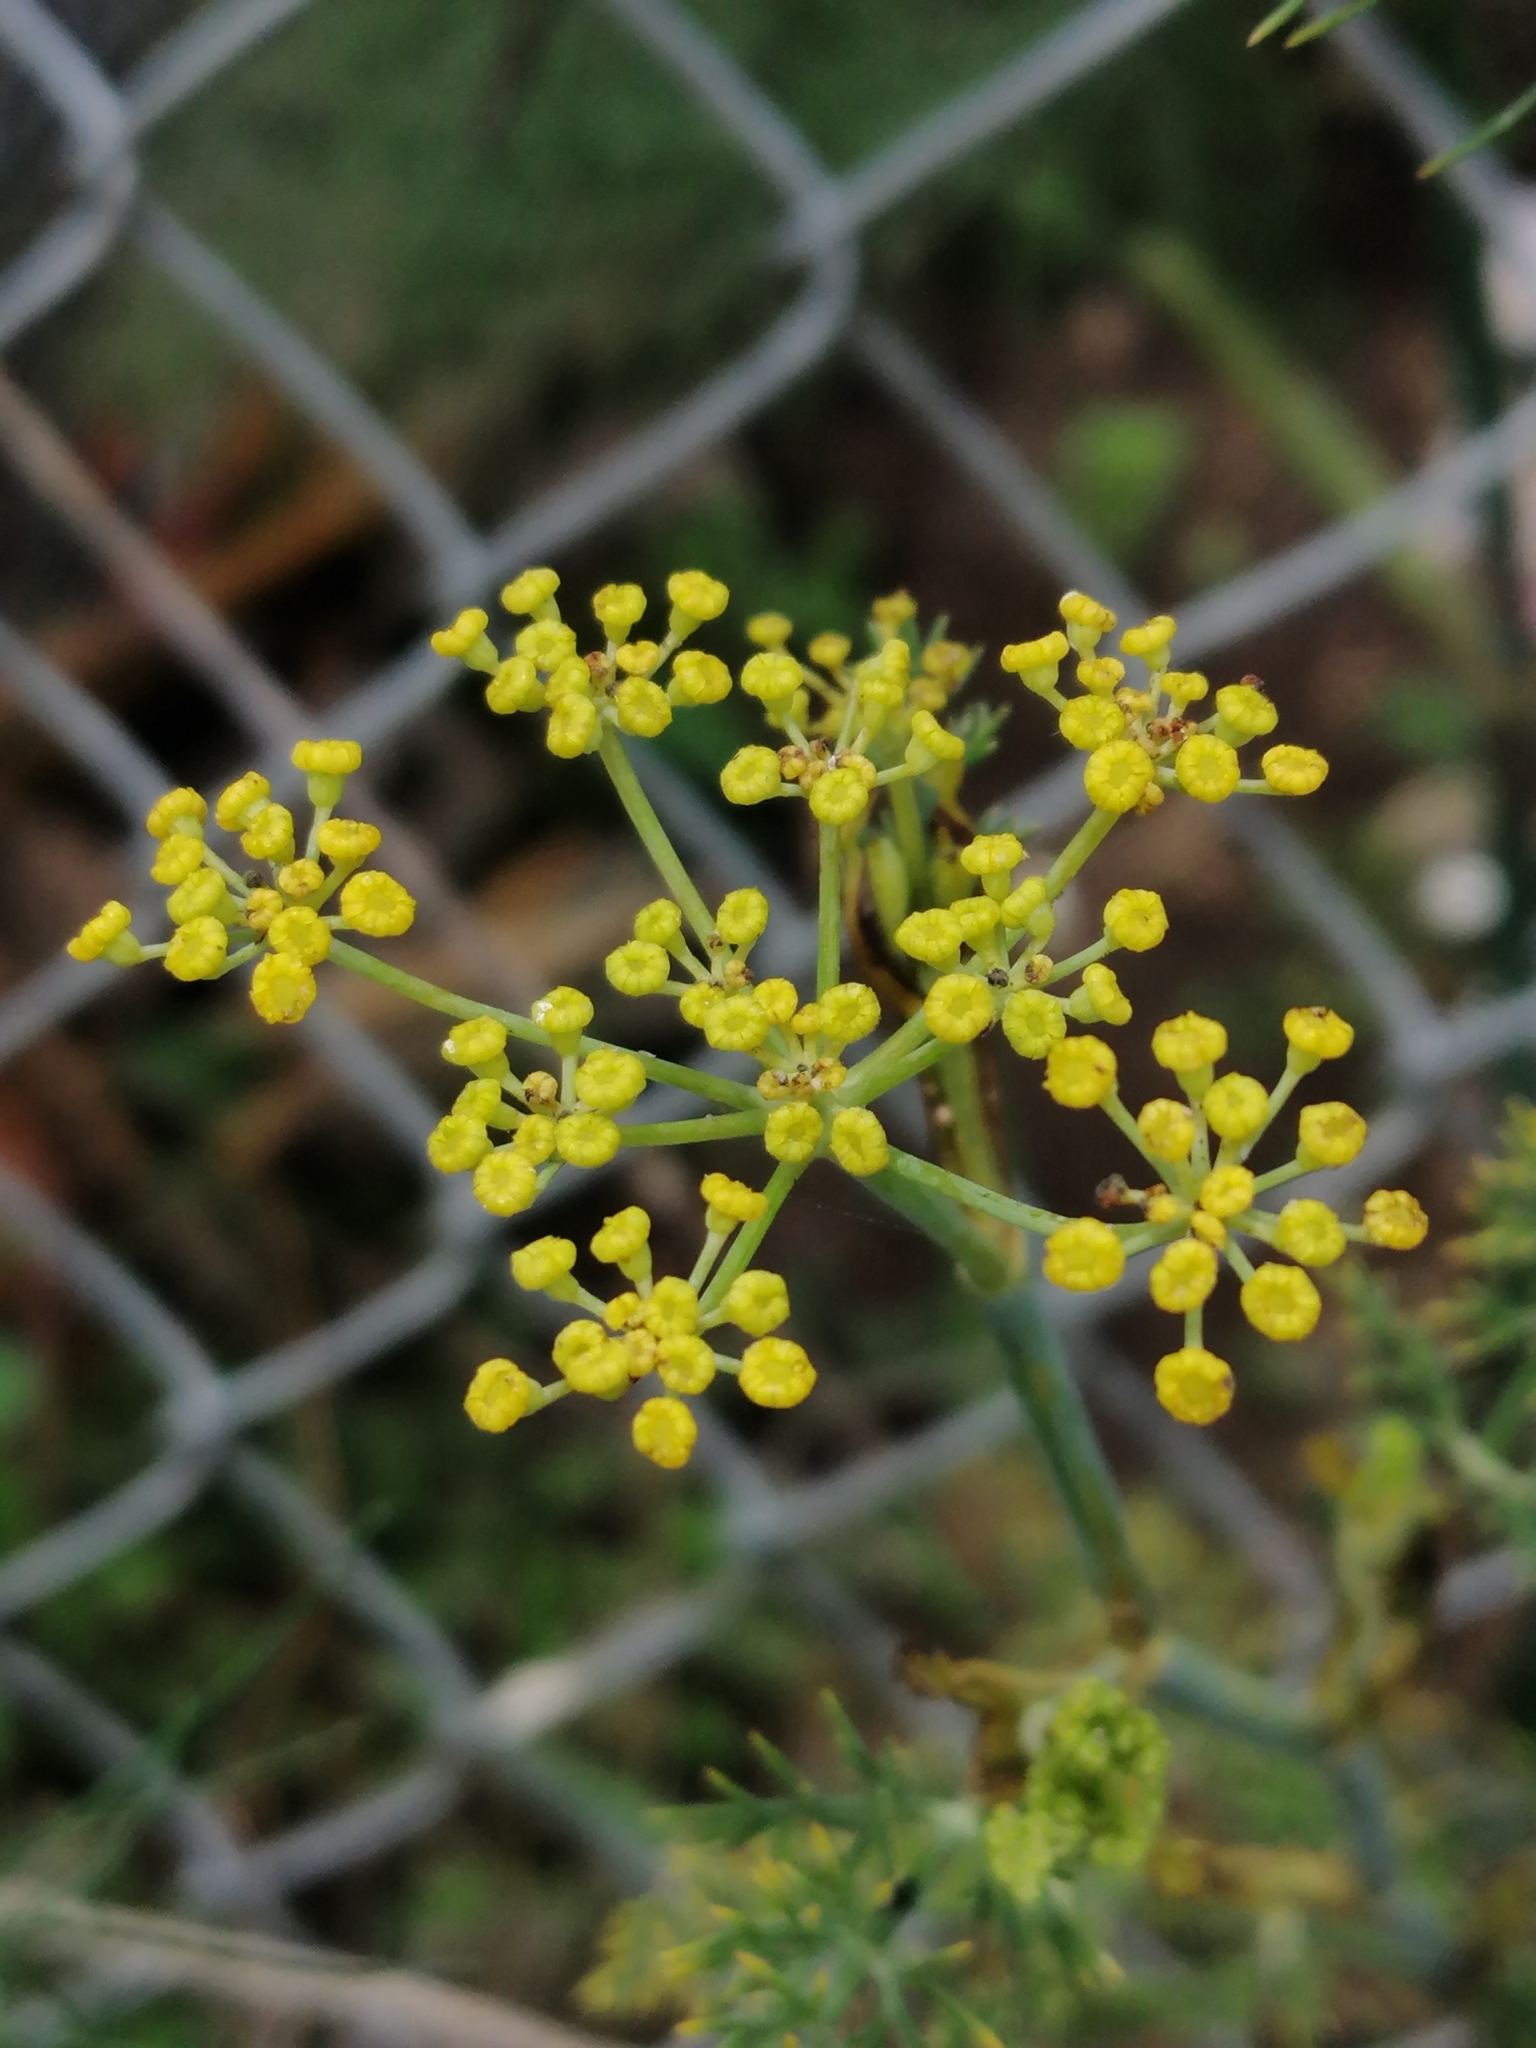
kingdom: Plantae
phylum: Tracheophyta
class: Magnoliopsida
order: Apiales
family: Apiaceae
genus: Foeniculum
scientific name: Foeniculum vulgare
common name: Fennel
